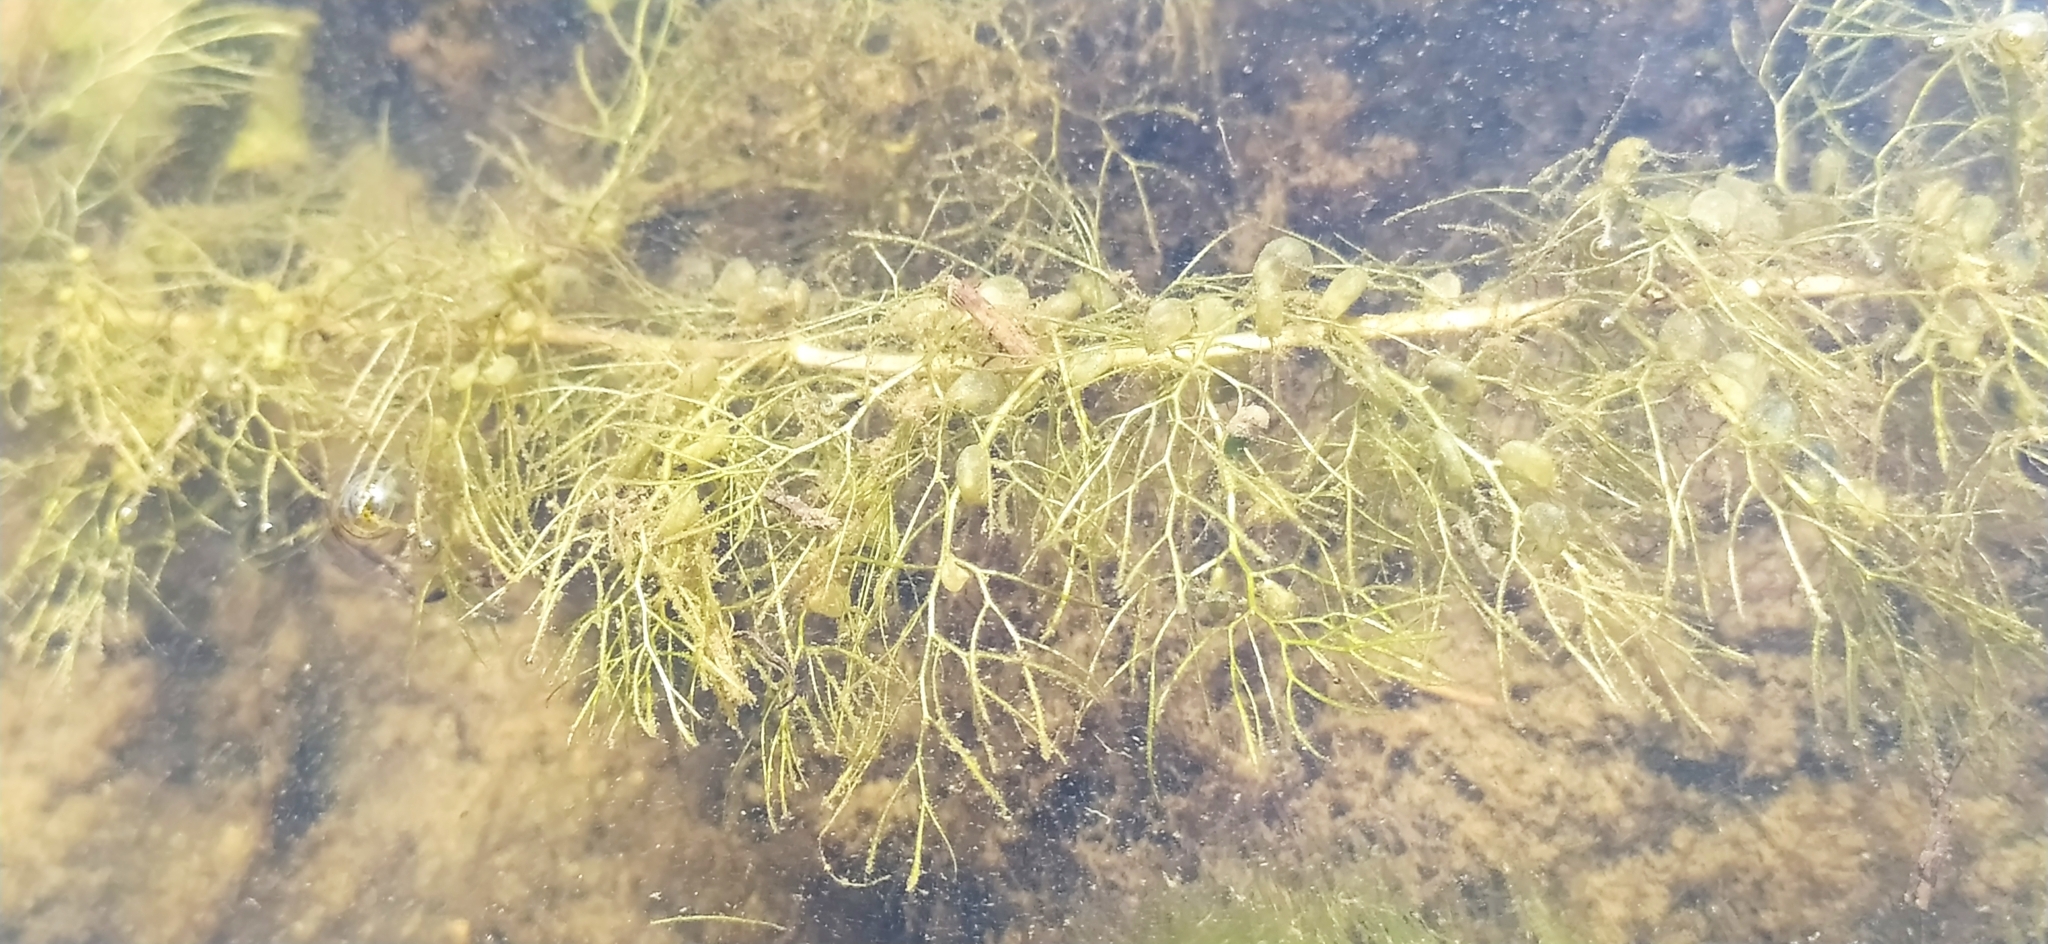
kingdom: Plantae
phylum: Tracheophyta
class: Magnoliopsida
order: Lamiales
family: Lentibulariaceae
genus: Utricularia
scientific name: Utricularia vulgaris
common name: Greater bladderwort
